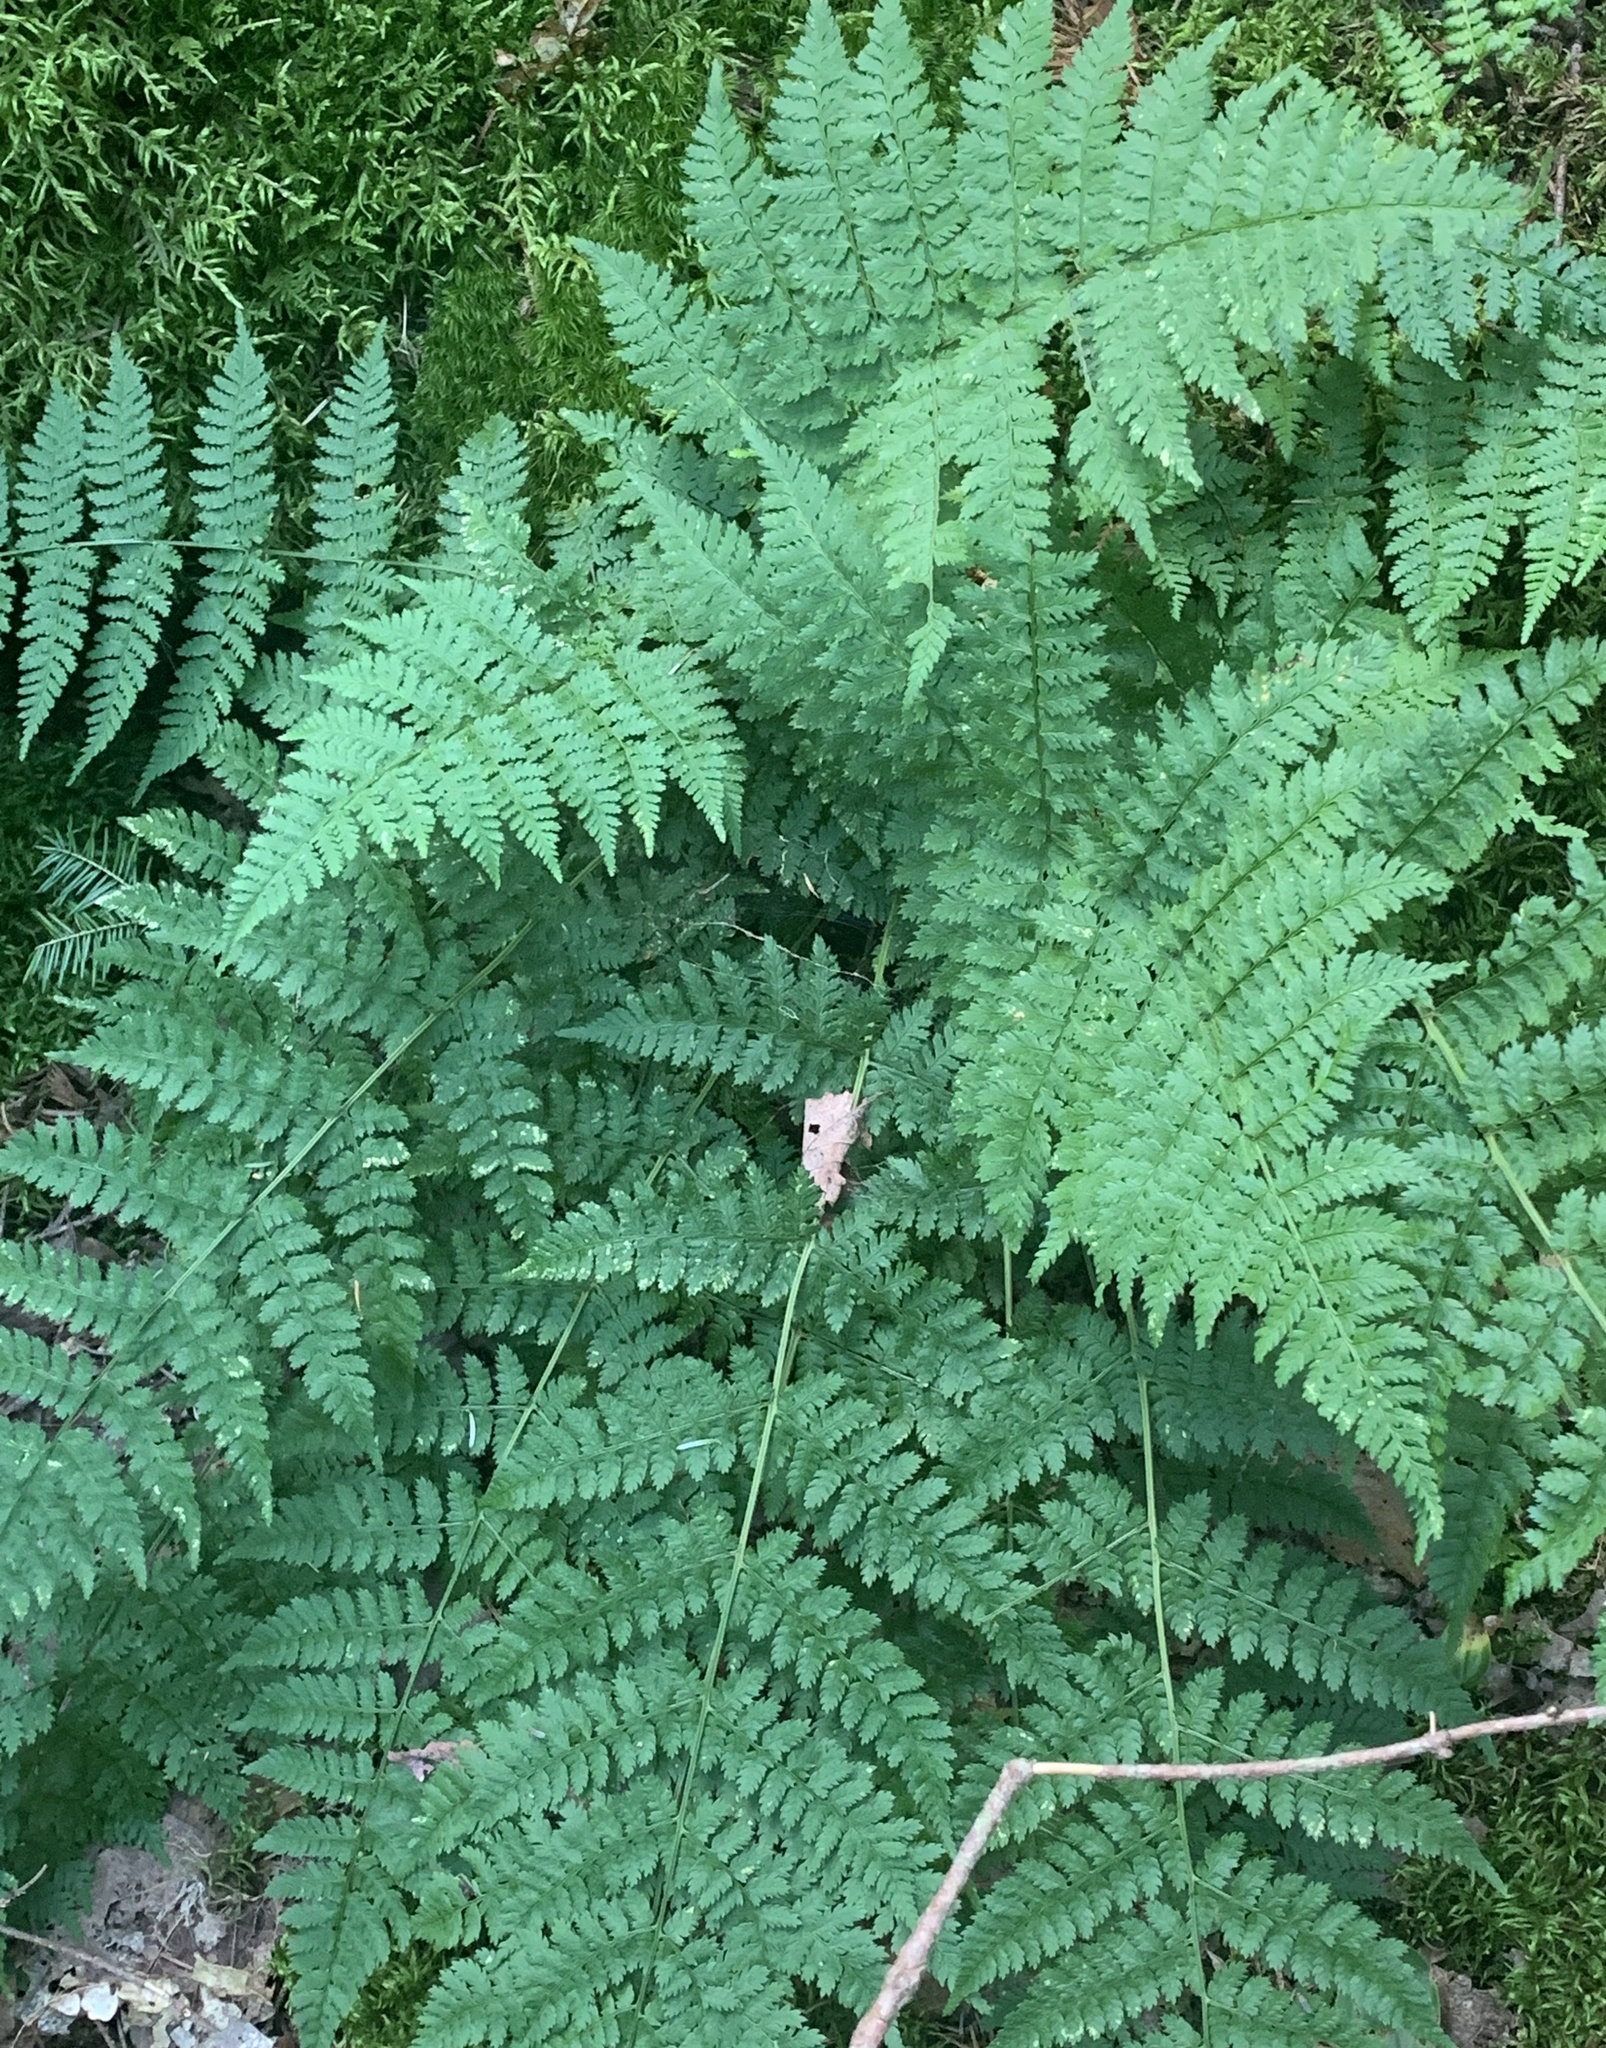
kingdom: Plantae
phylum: Tracheophyta
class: Polypodiopsida
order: Polypodiales
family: Dryopteridaceae
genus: Dryopteris
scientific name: Dryopteris intermedia
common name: Evergreen wood fern
